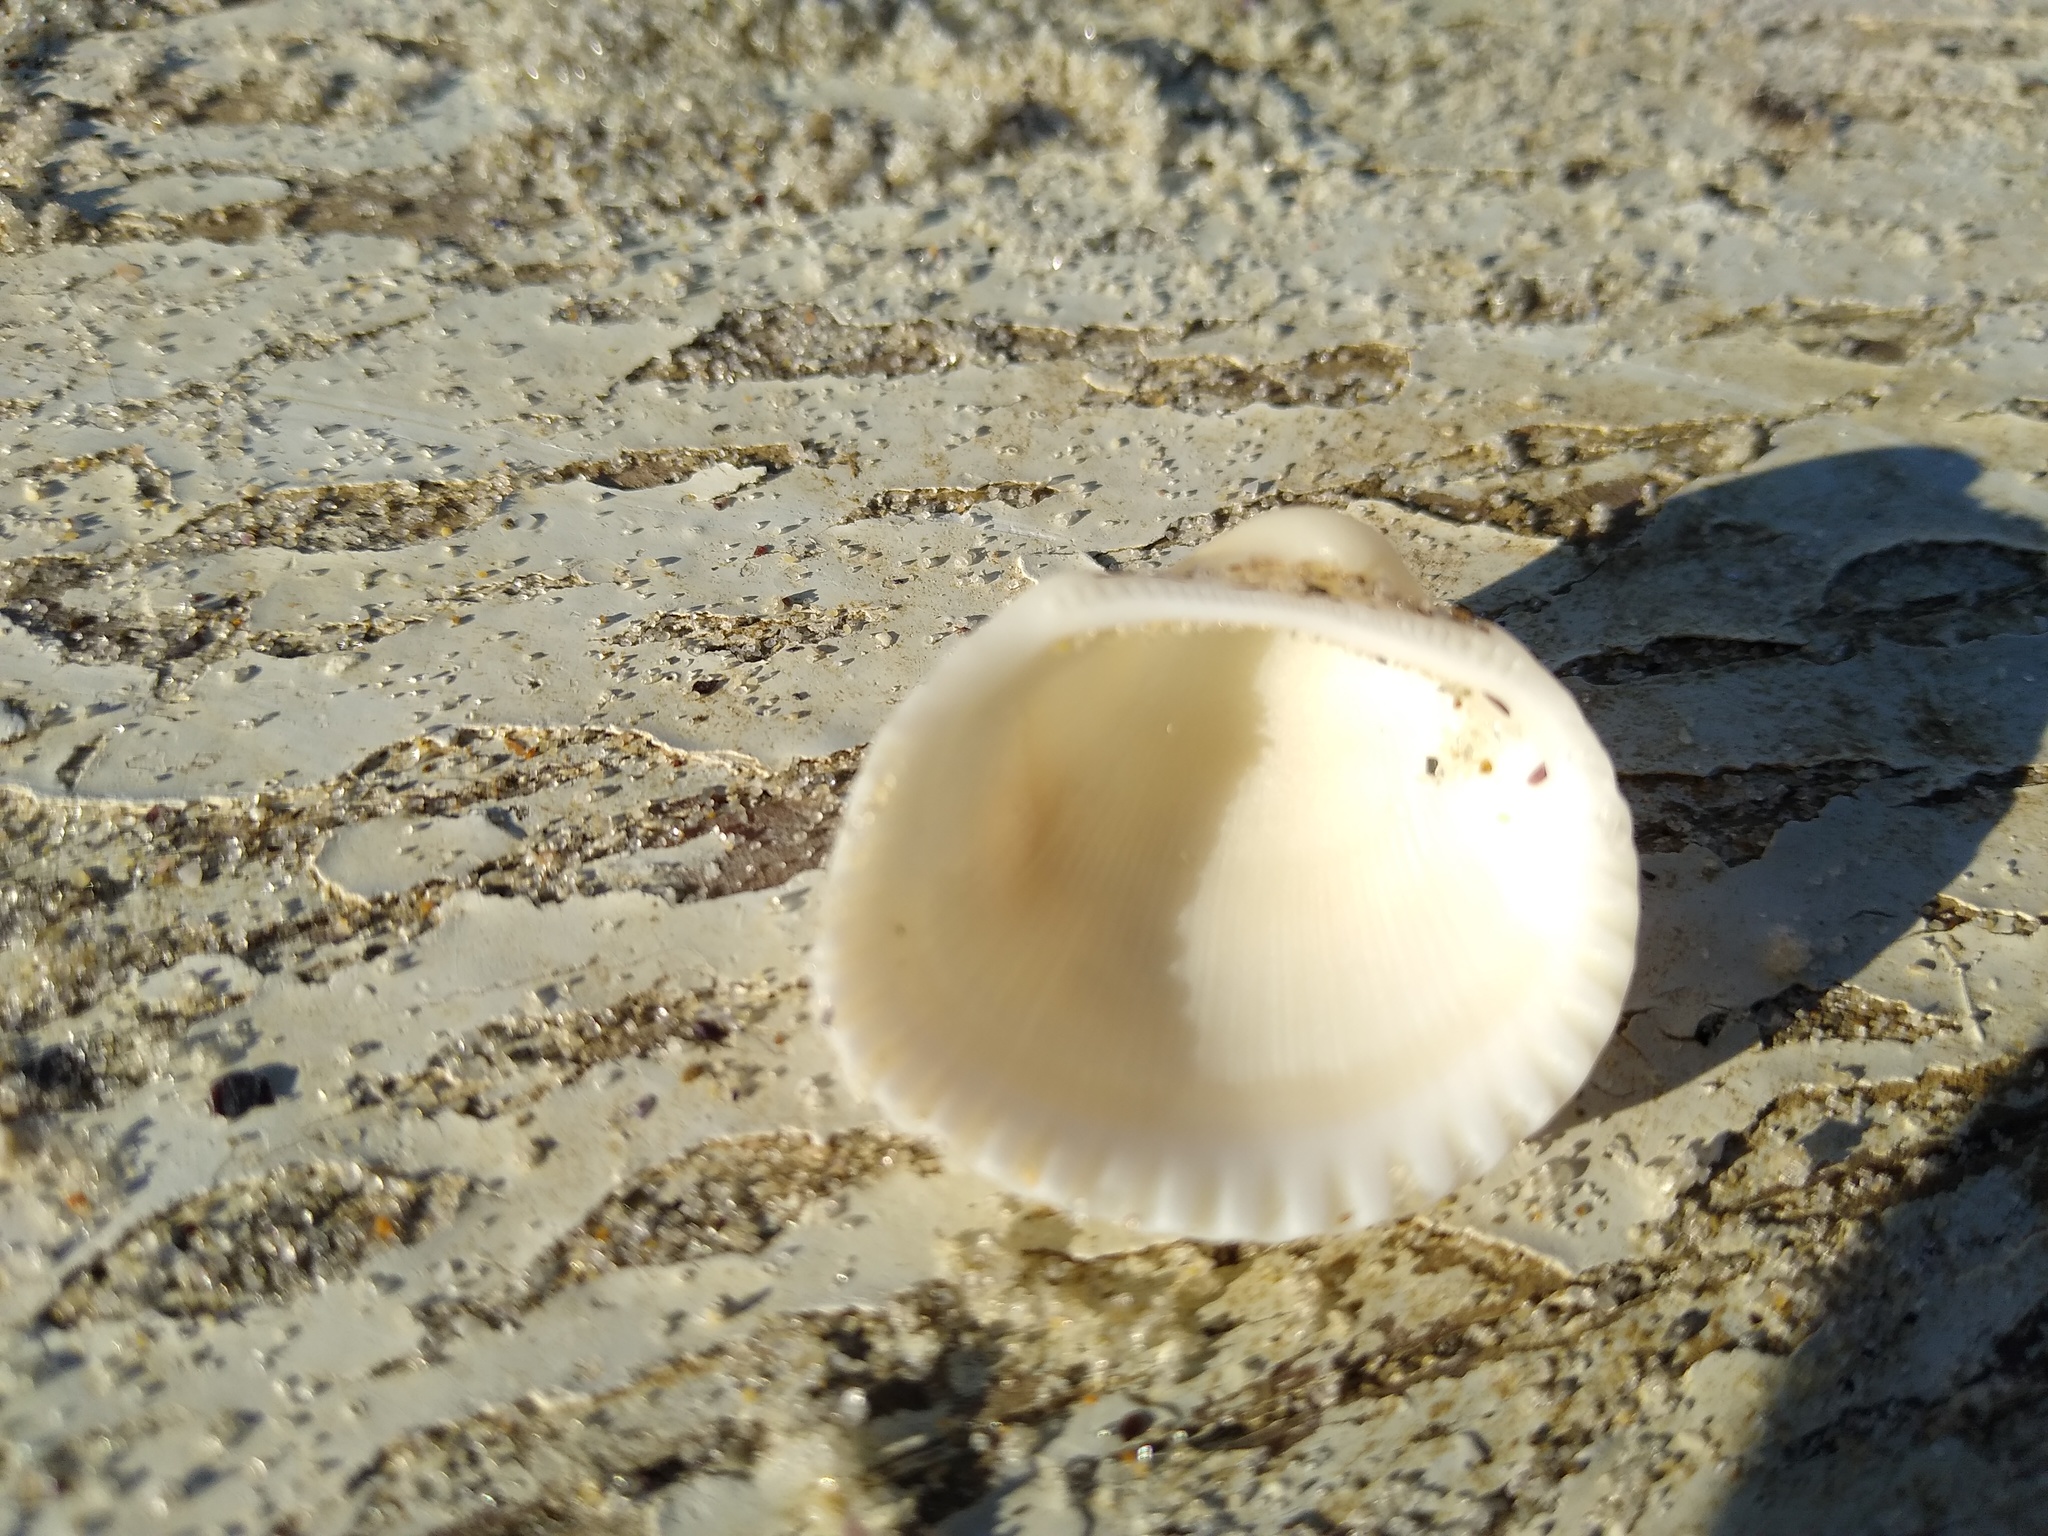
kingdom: Animalia
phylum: Mollusca
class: Bivalvia
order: Arcida
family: Arcidae
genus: Anadara
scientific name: Anadara kagoshimensis
